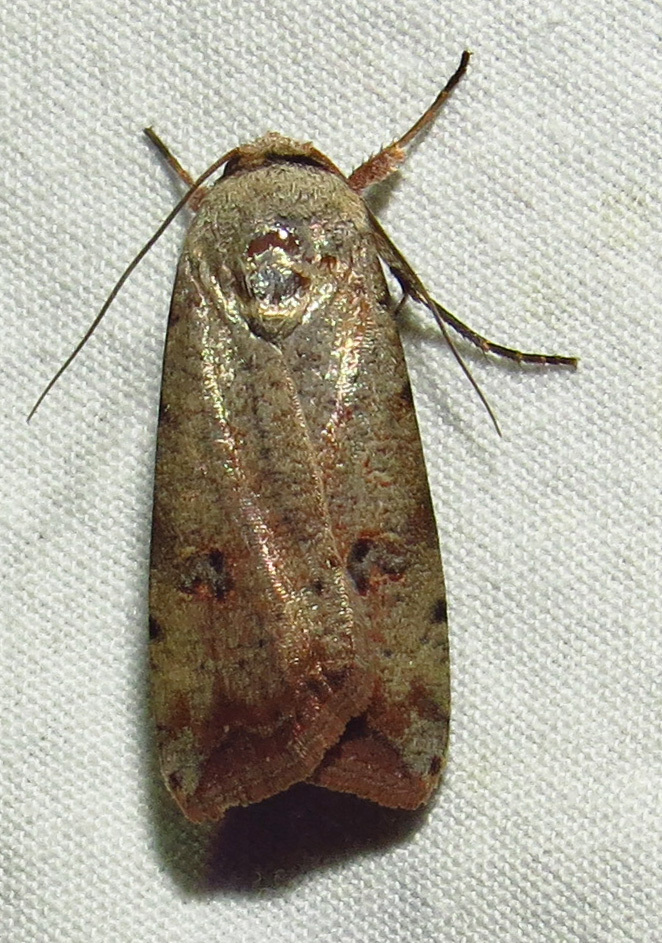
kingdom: Animalia
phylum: Arthropoda
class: Insecta
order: Lepidoptera
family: Noctuidae
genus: Anicla
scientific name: Anicla infecta
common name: Green cutworm
